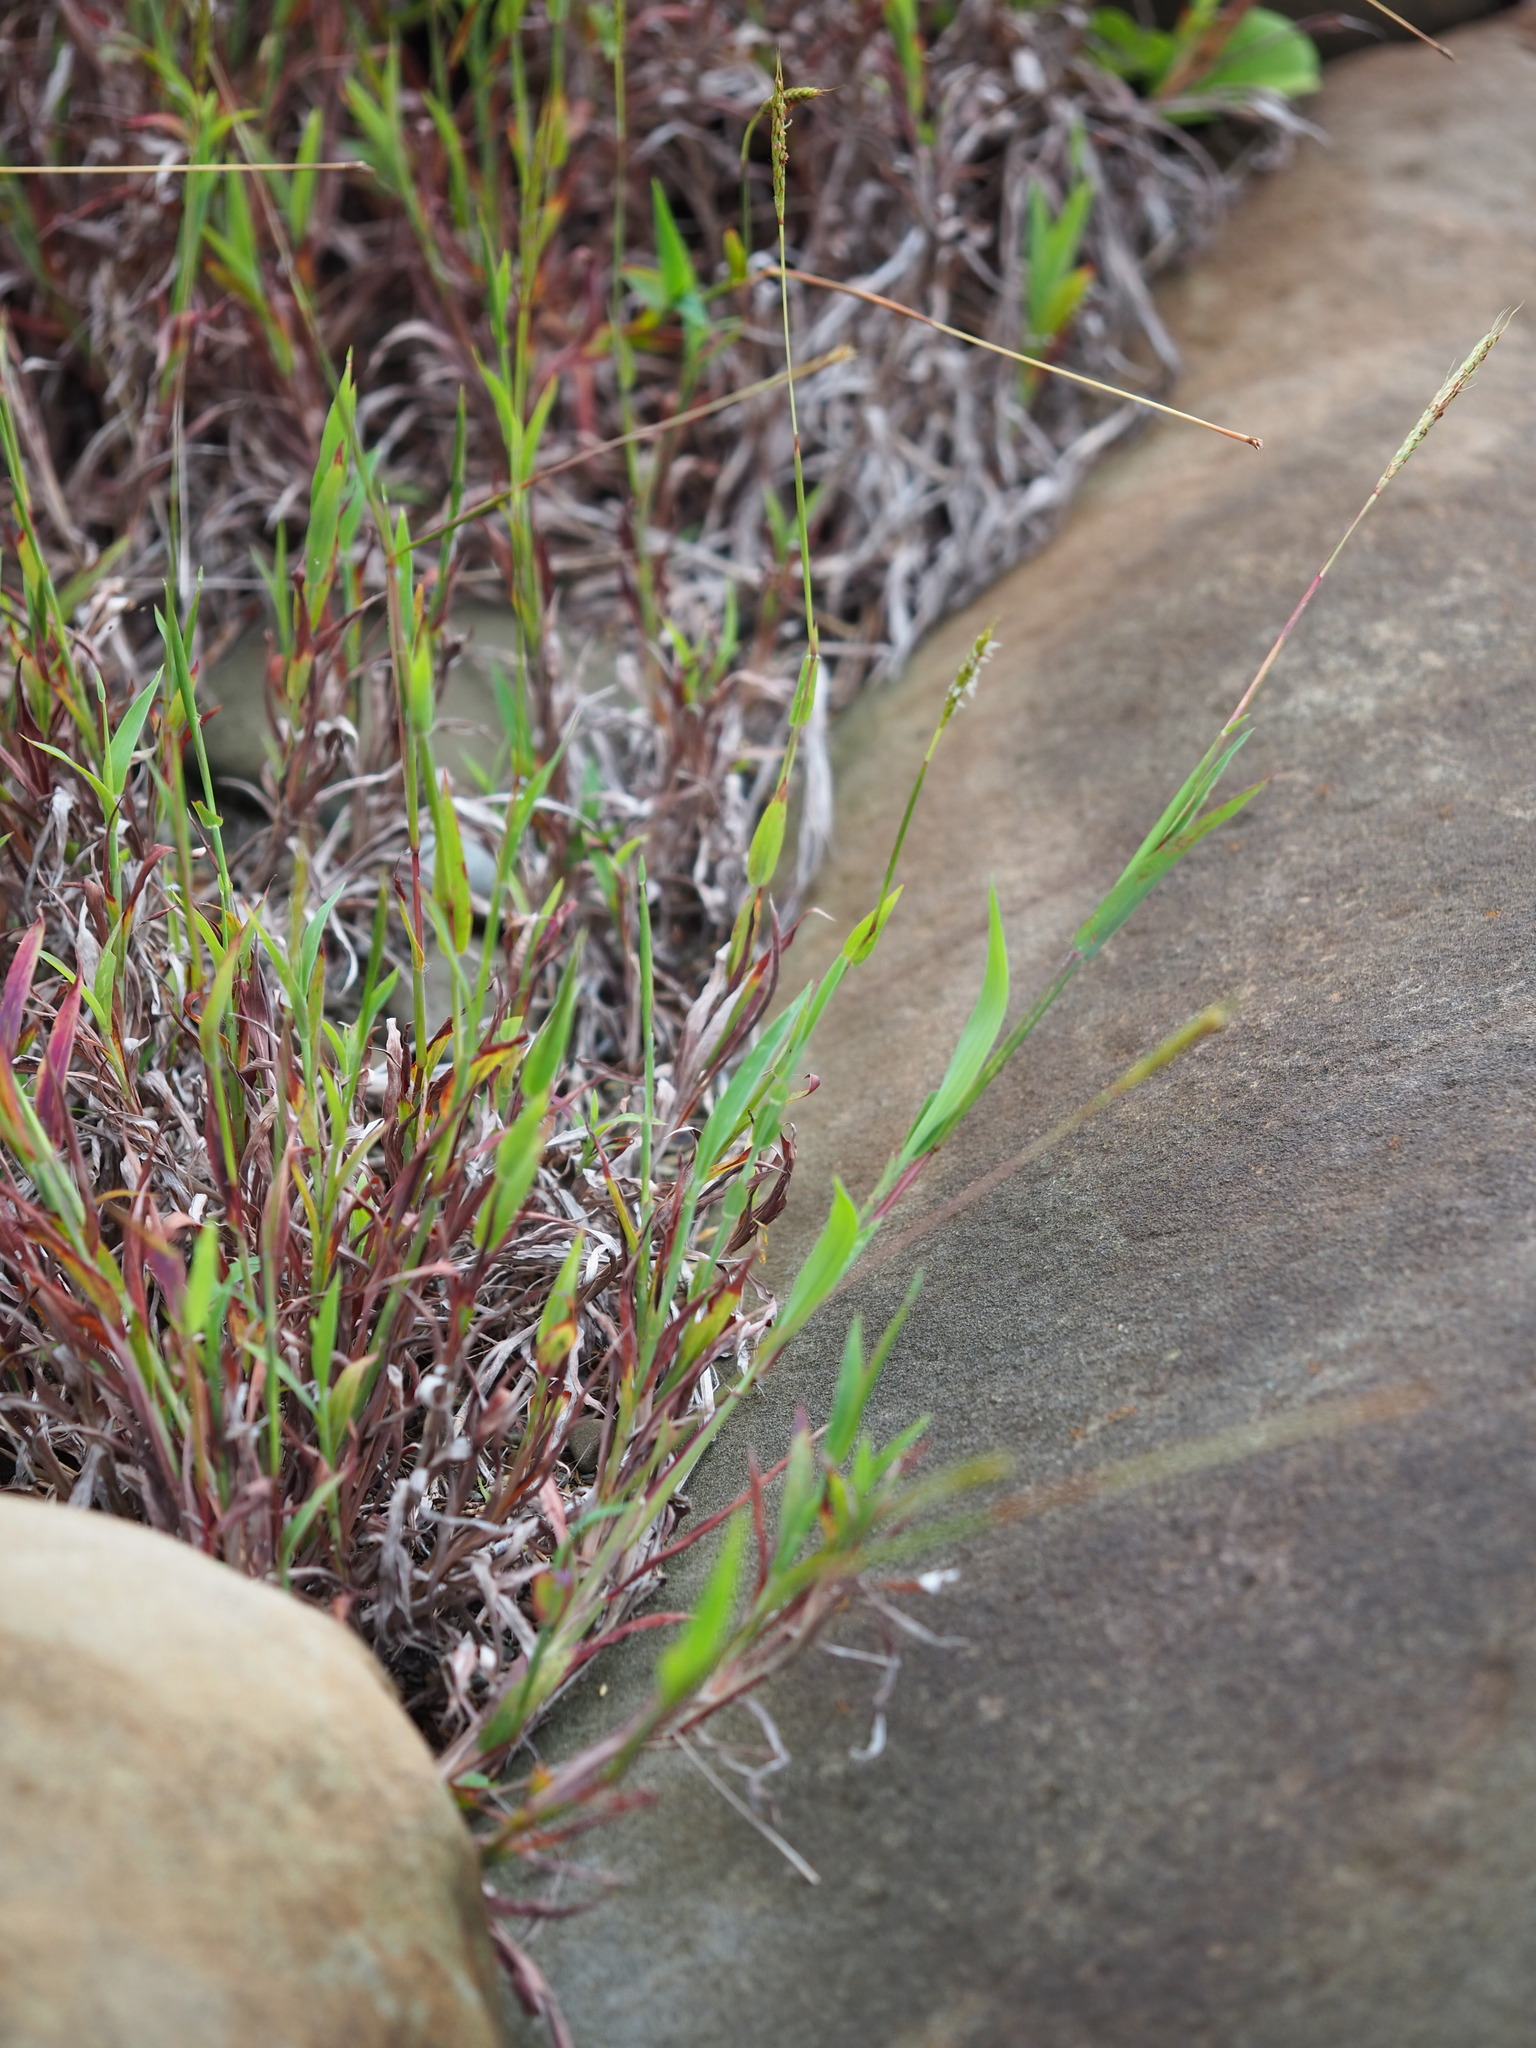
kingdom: Plantae
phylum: Tracheophyta
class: Liliopsida
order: Poales
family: Poaceae
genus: Ischaemum
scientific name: Ischaemum setaceum
